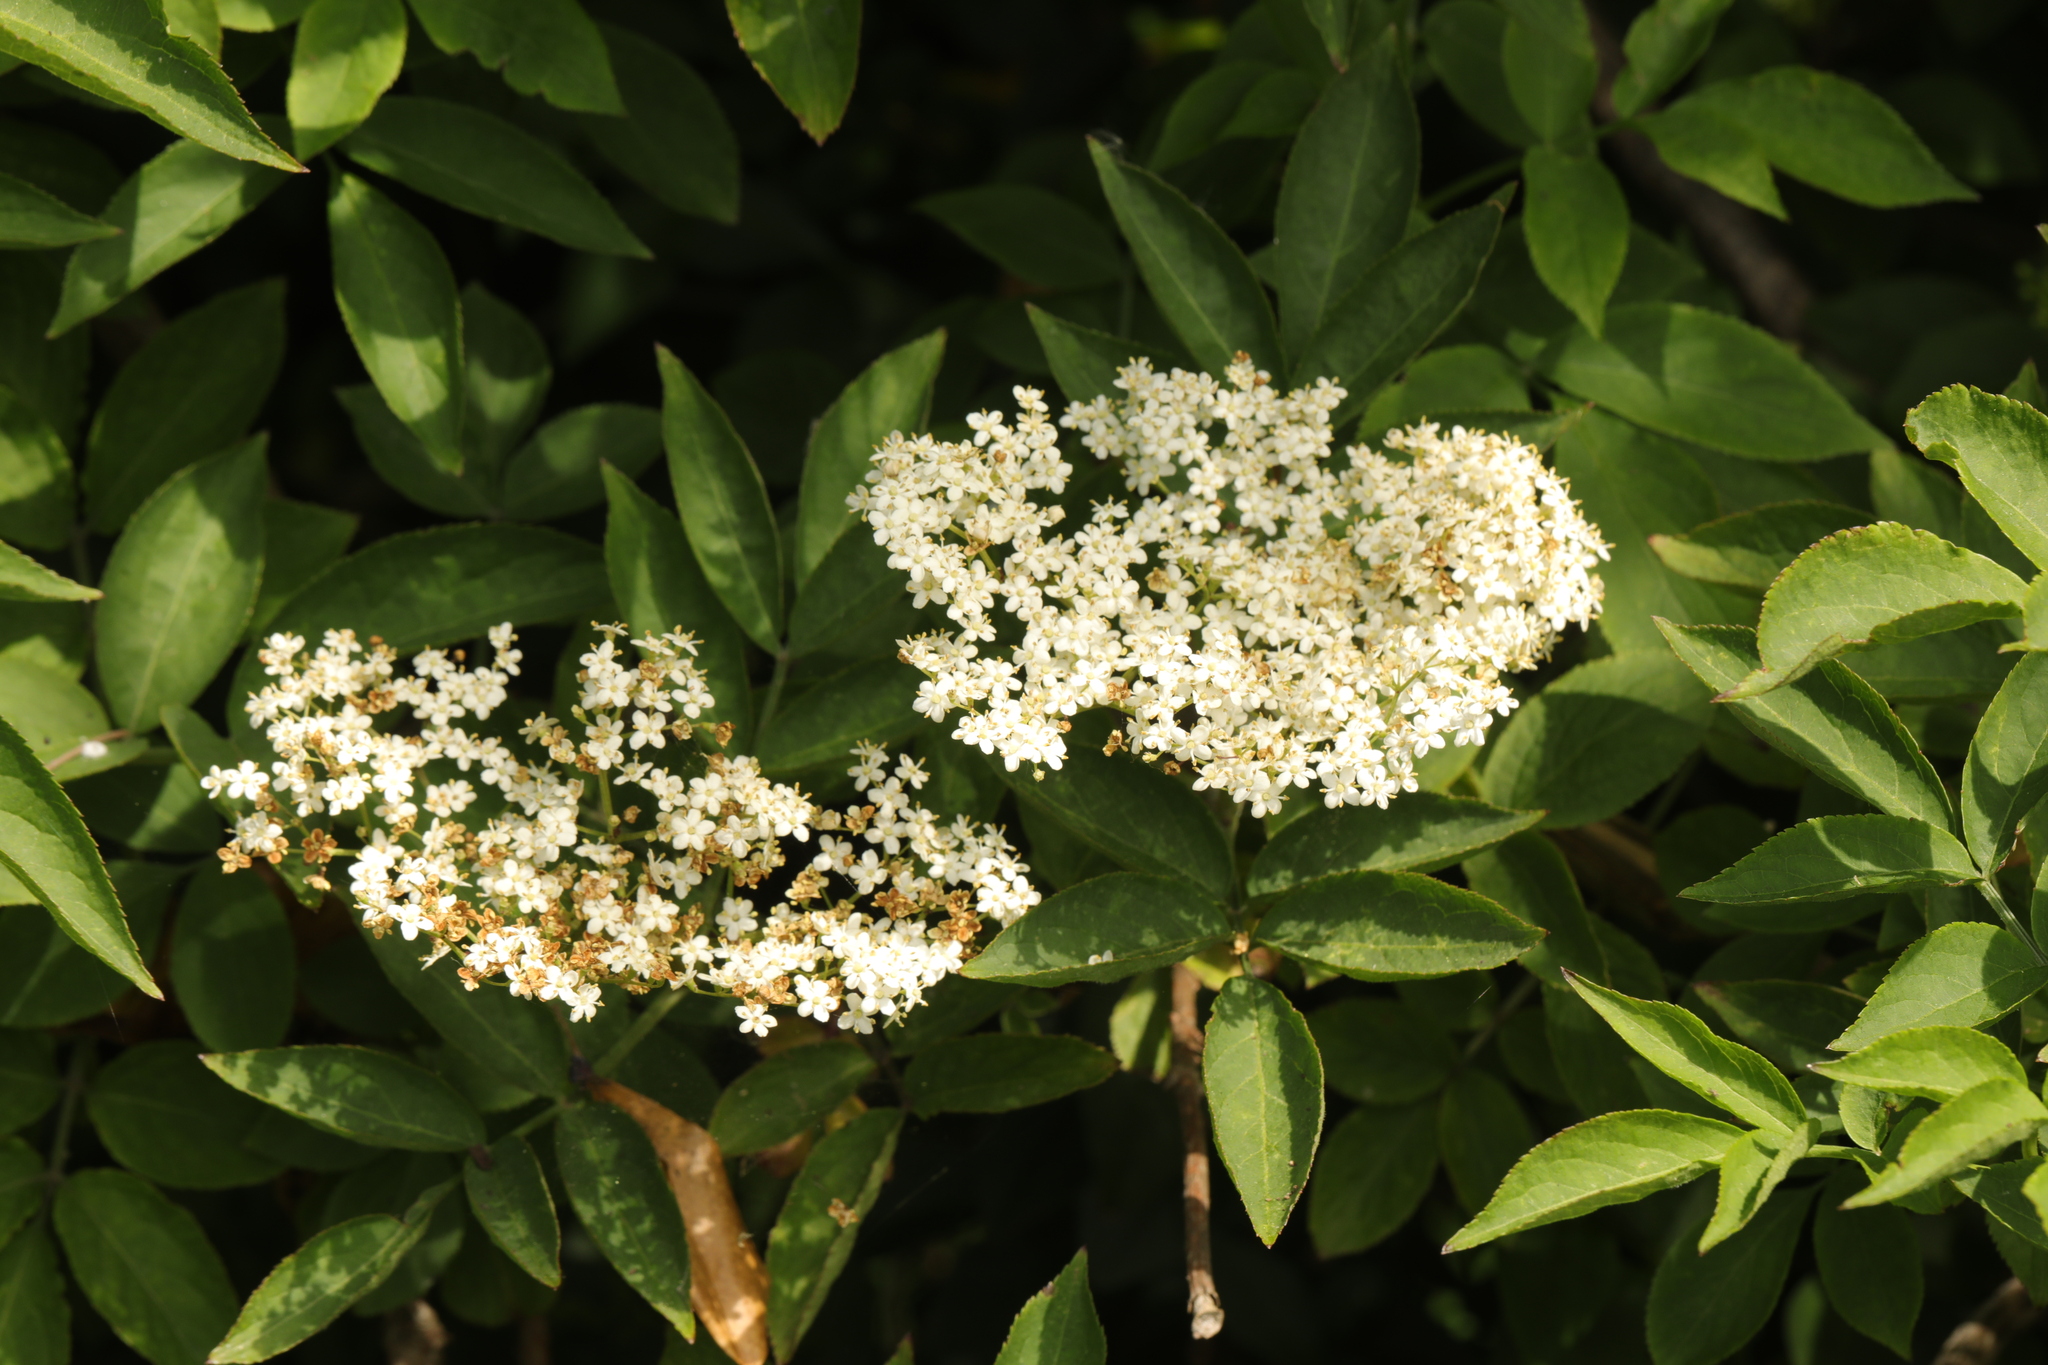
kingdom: Plantae
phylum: Tracheophyta
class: Magnoliopsida
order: Dipsacales
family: Viburnaceae
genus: Sambucus
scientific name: Sambucus nigra
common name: Elder
